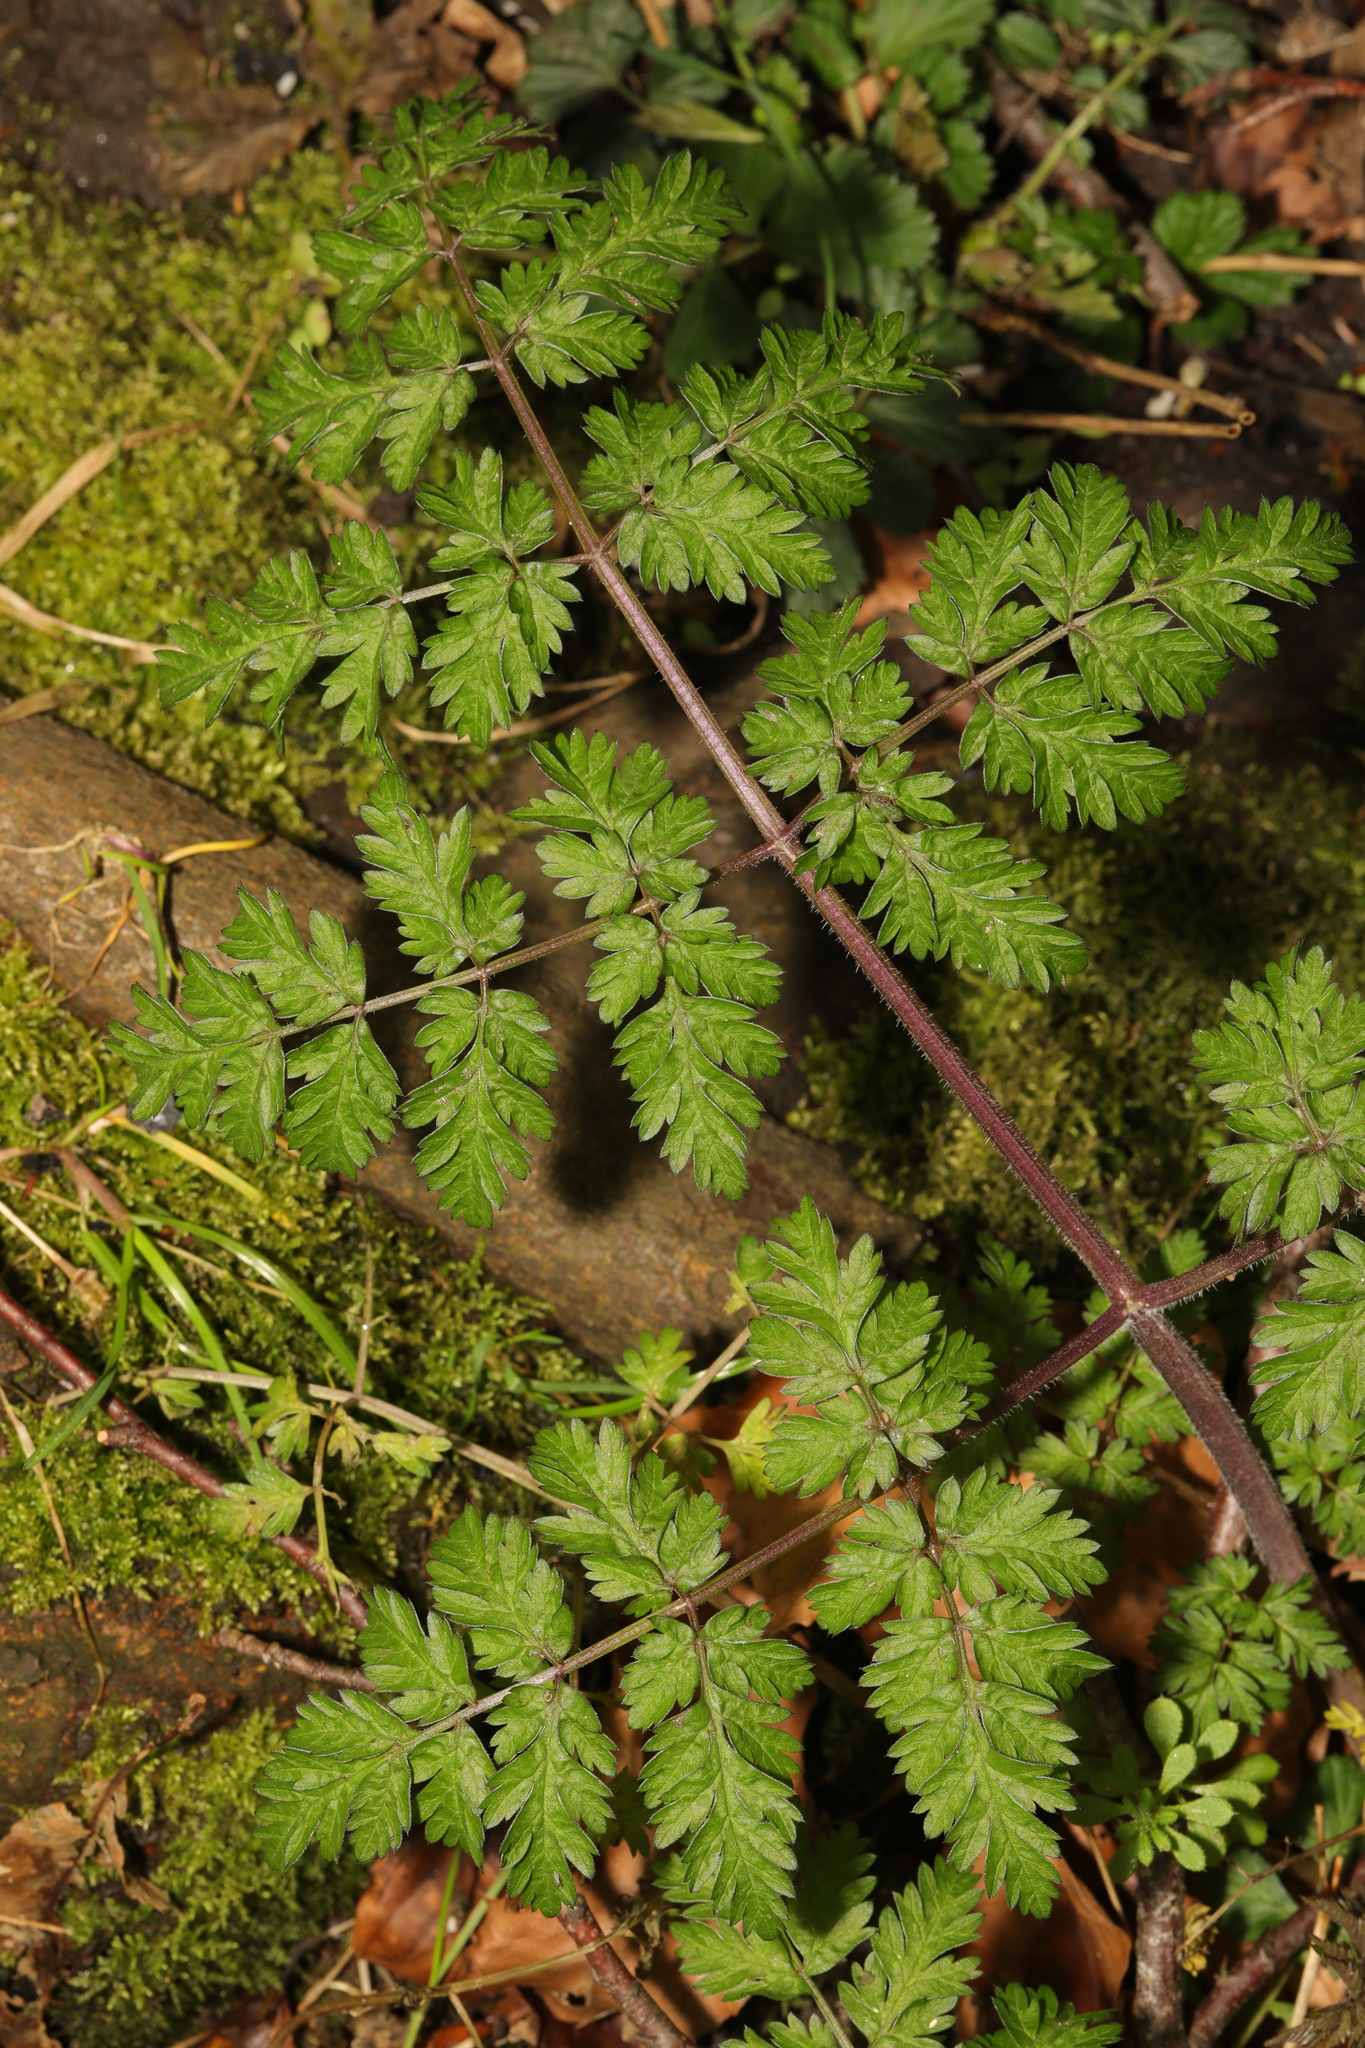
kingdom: Plantae
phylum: Tracheophyta
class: Magnoliopsida
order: Apiales
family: Apiaceae
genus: Anthriscus
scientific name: Anthriscus sylvestris
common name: Cow parsley
